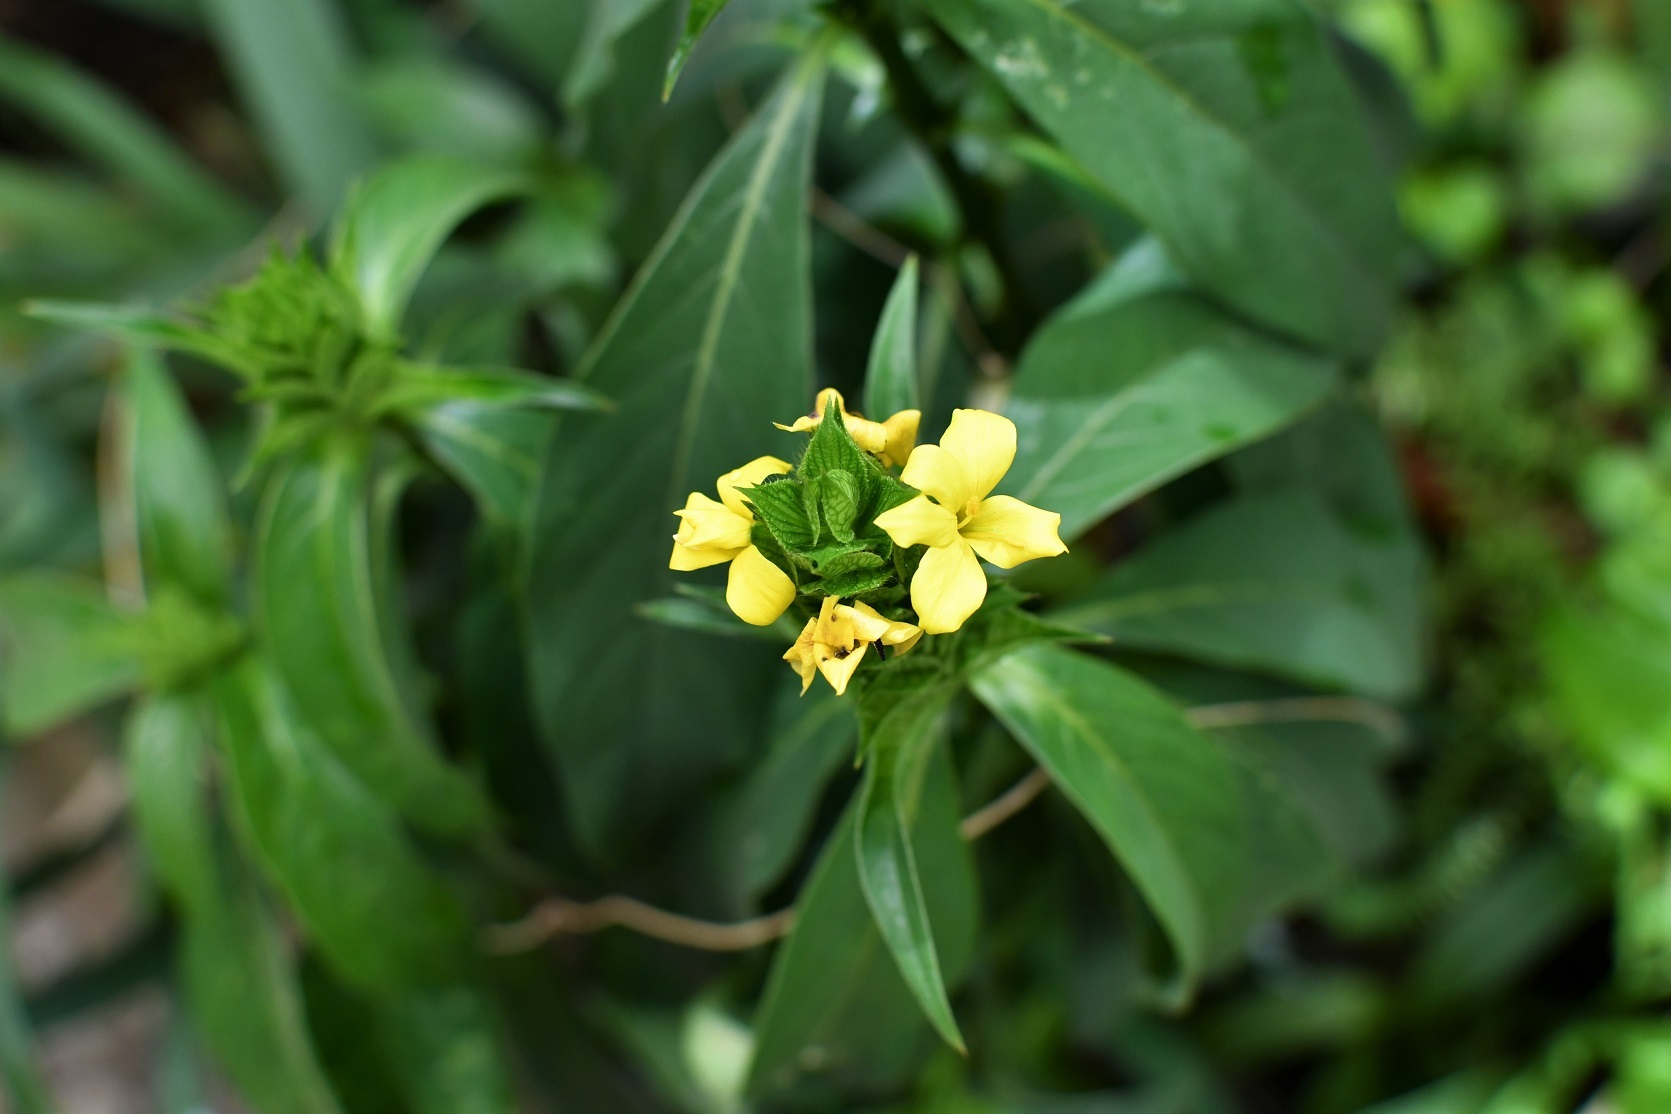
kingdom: Plantae
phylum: Tracheophyta
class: Magnoliopsida
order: Lamiales
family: Acanthaceae
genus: Barleria
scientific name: Barleria oenotheroides
